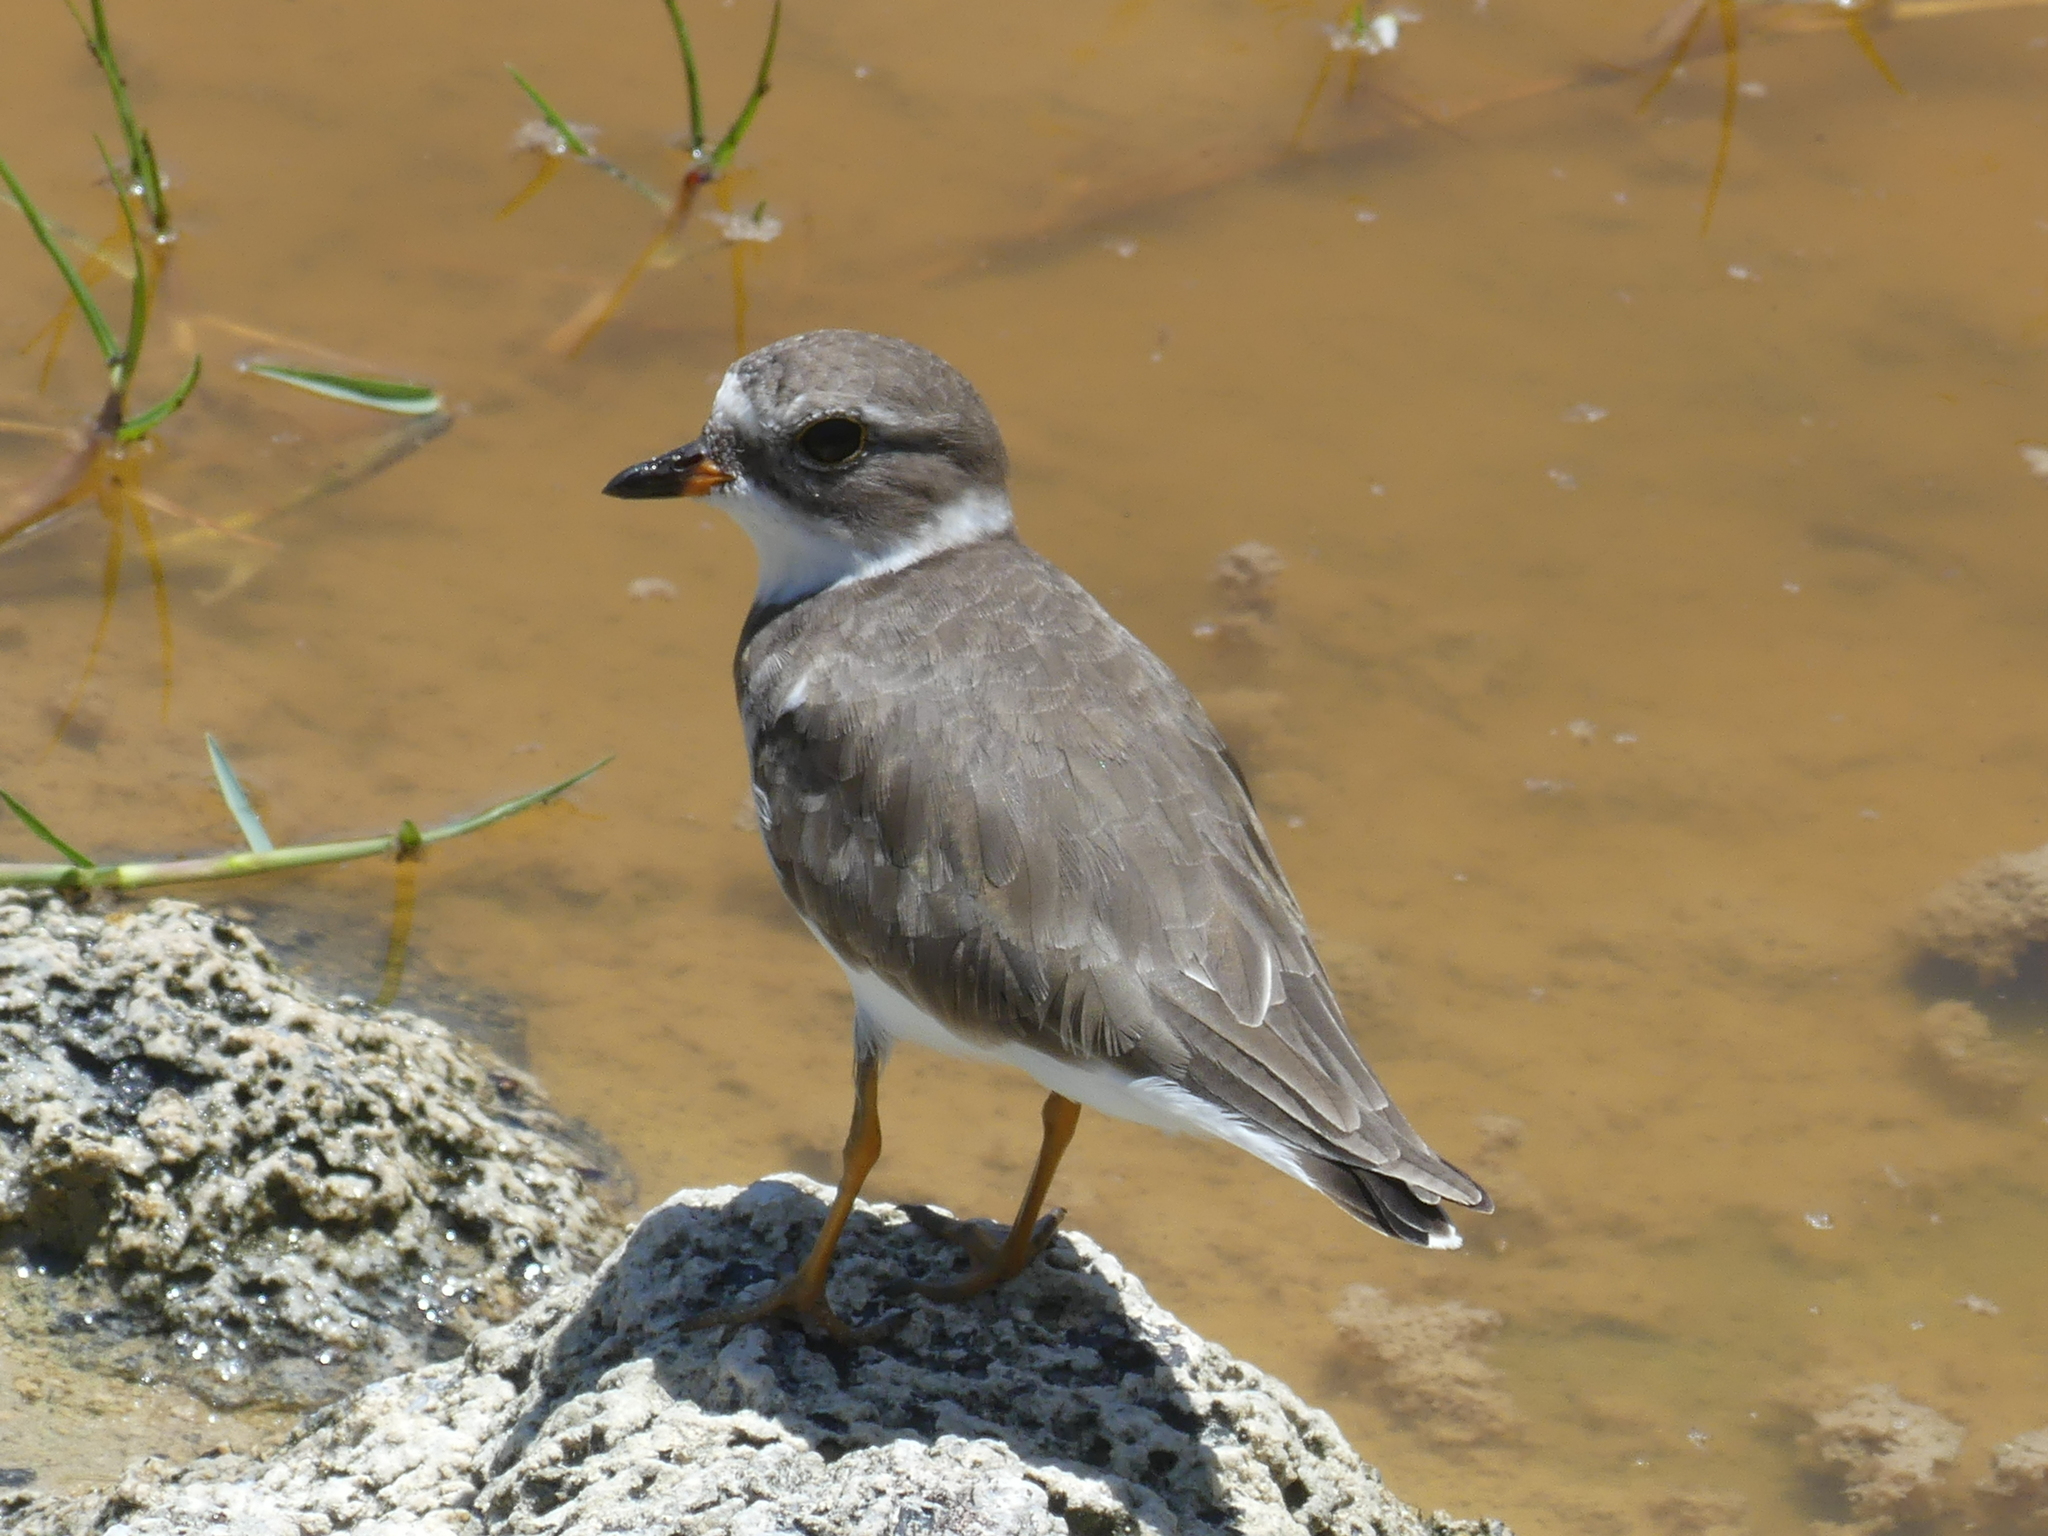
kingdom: Animalia
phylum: Chordata
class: Aves
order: Charadriiformes
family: Charadriidae
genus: Charadrius
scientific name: Charadrius semipalmatus
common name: Semipalmated plover
